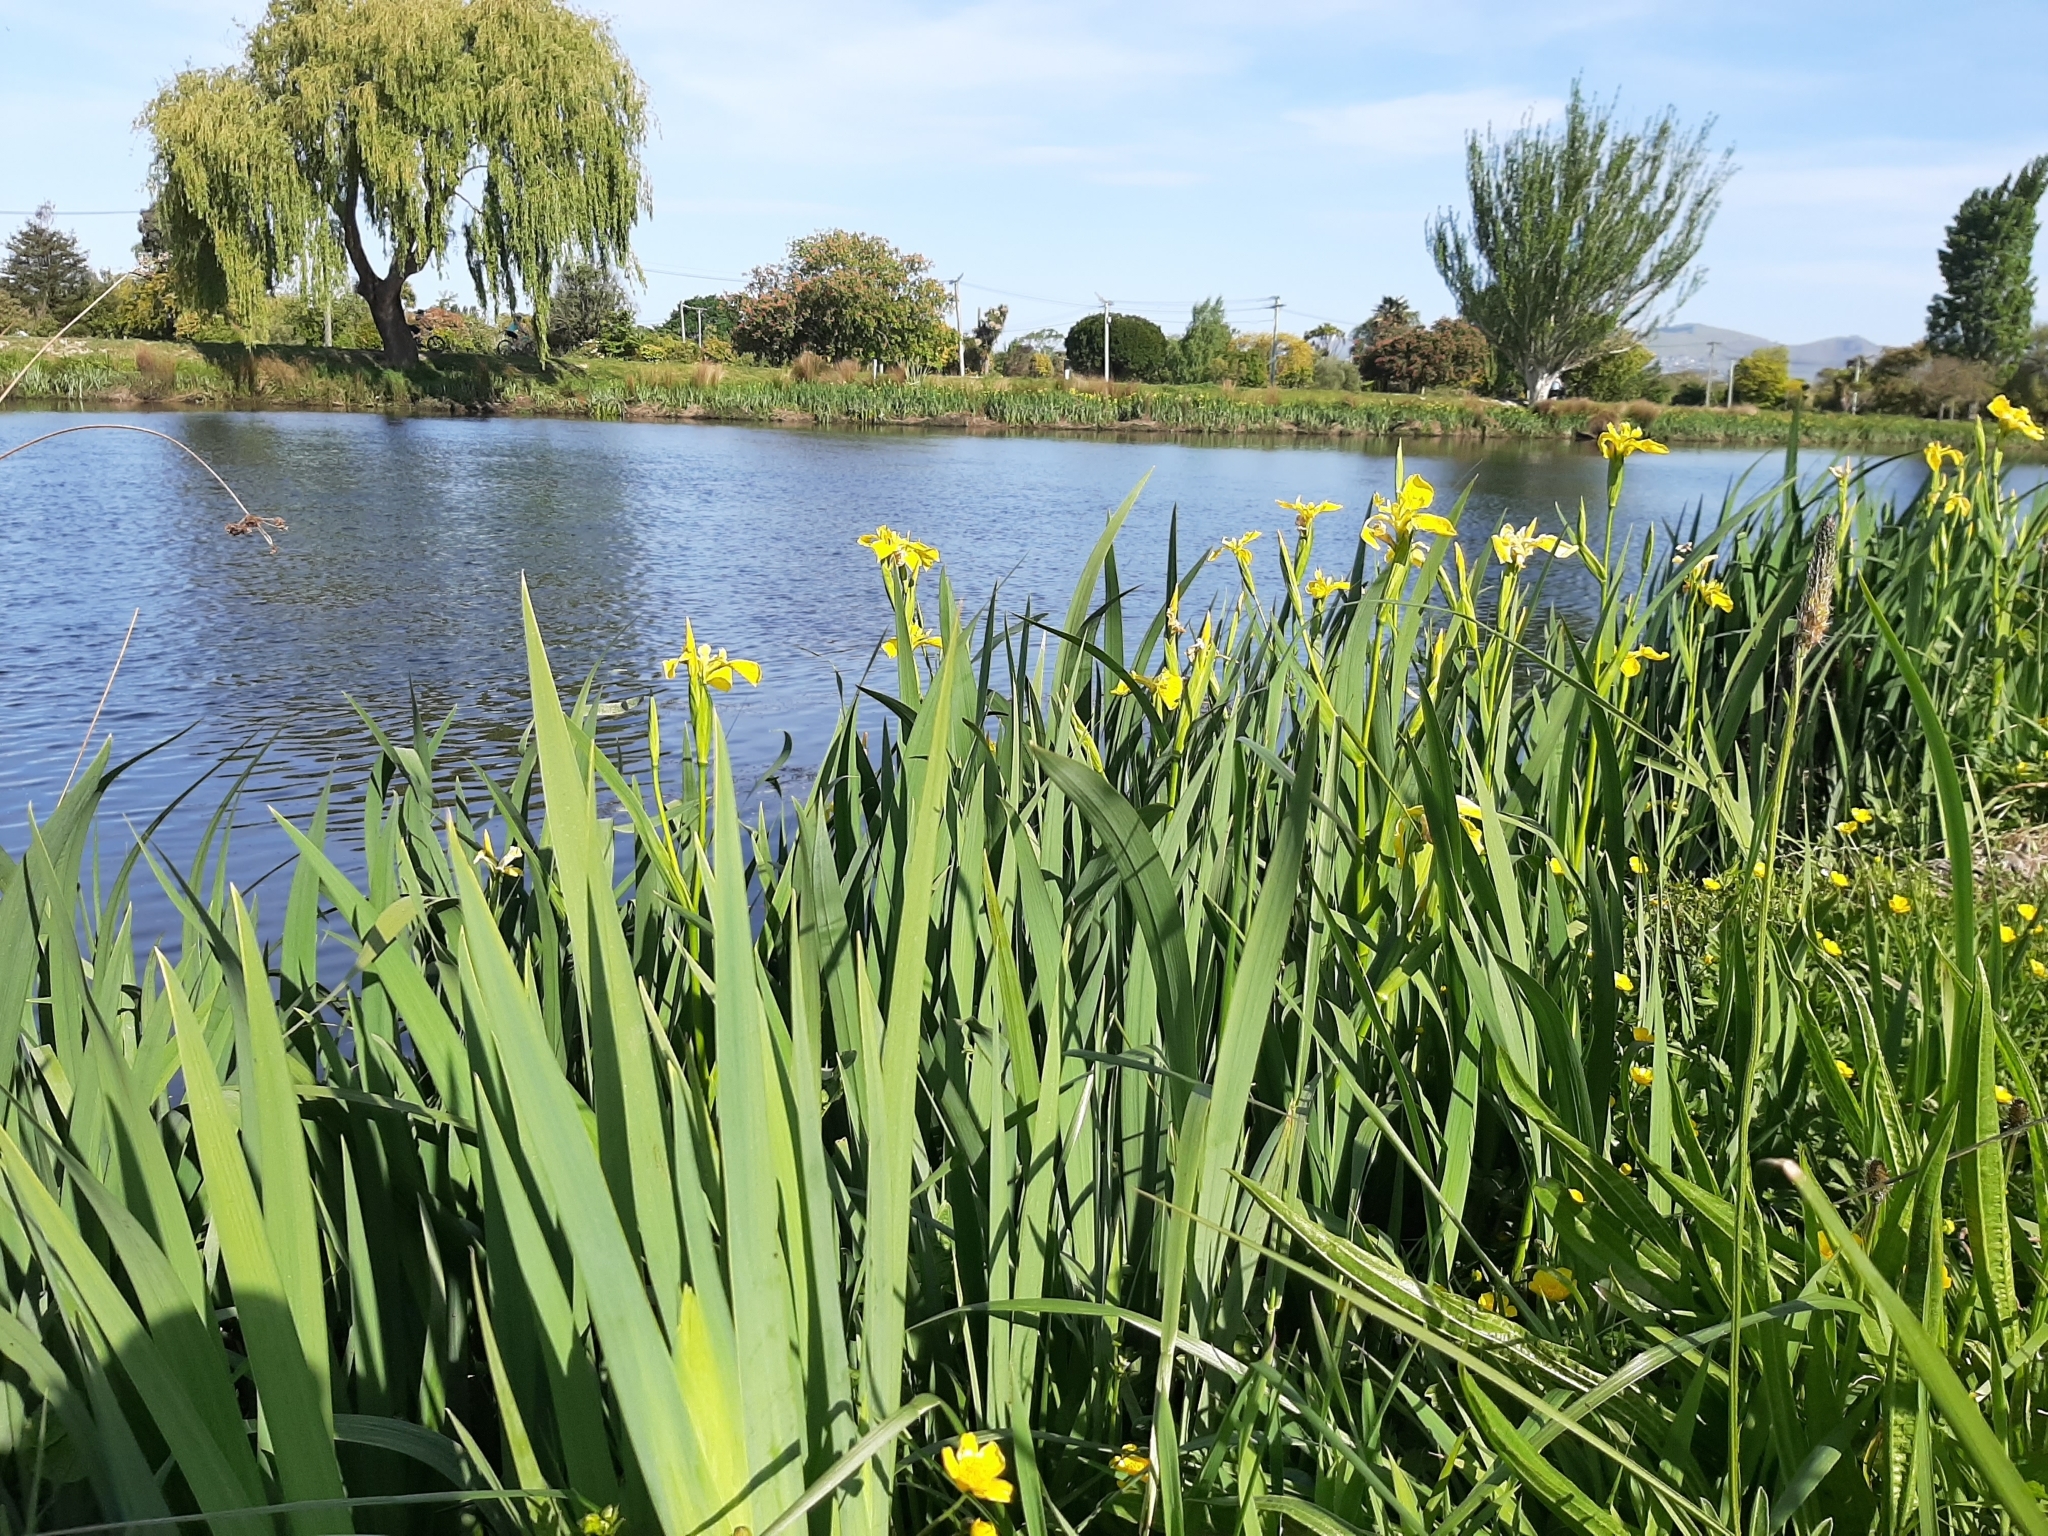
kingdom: Plantae
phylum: Tracheophyta
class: Liliopsida
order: Asparagales
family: Iridaceae
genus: Iris
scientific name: Iris pseudacorus
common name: Yellow flag
